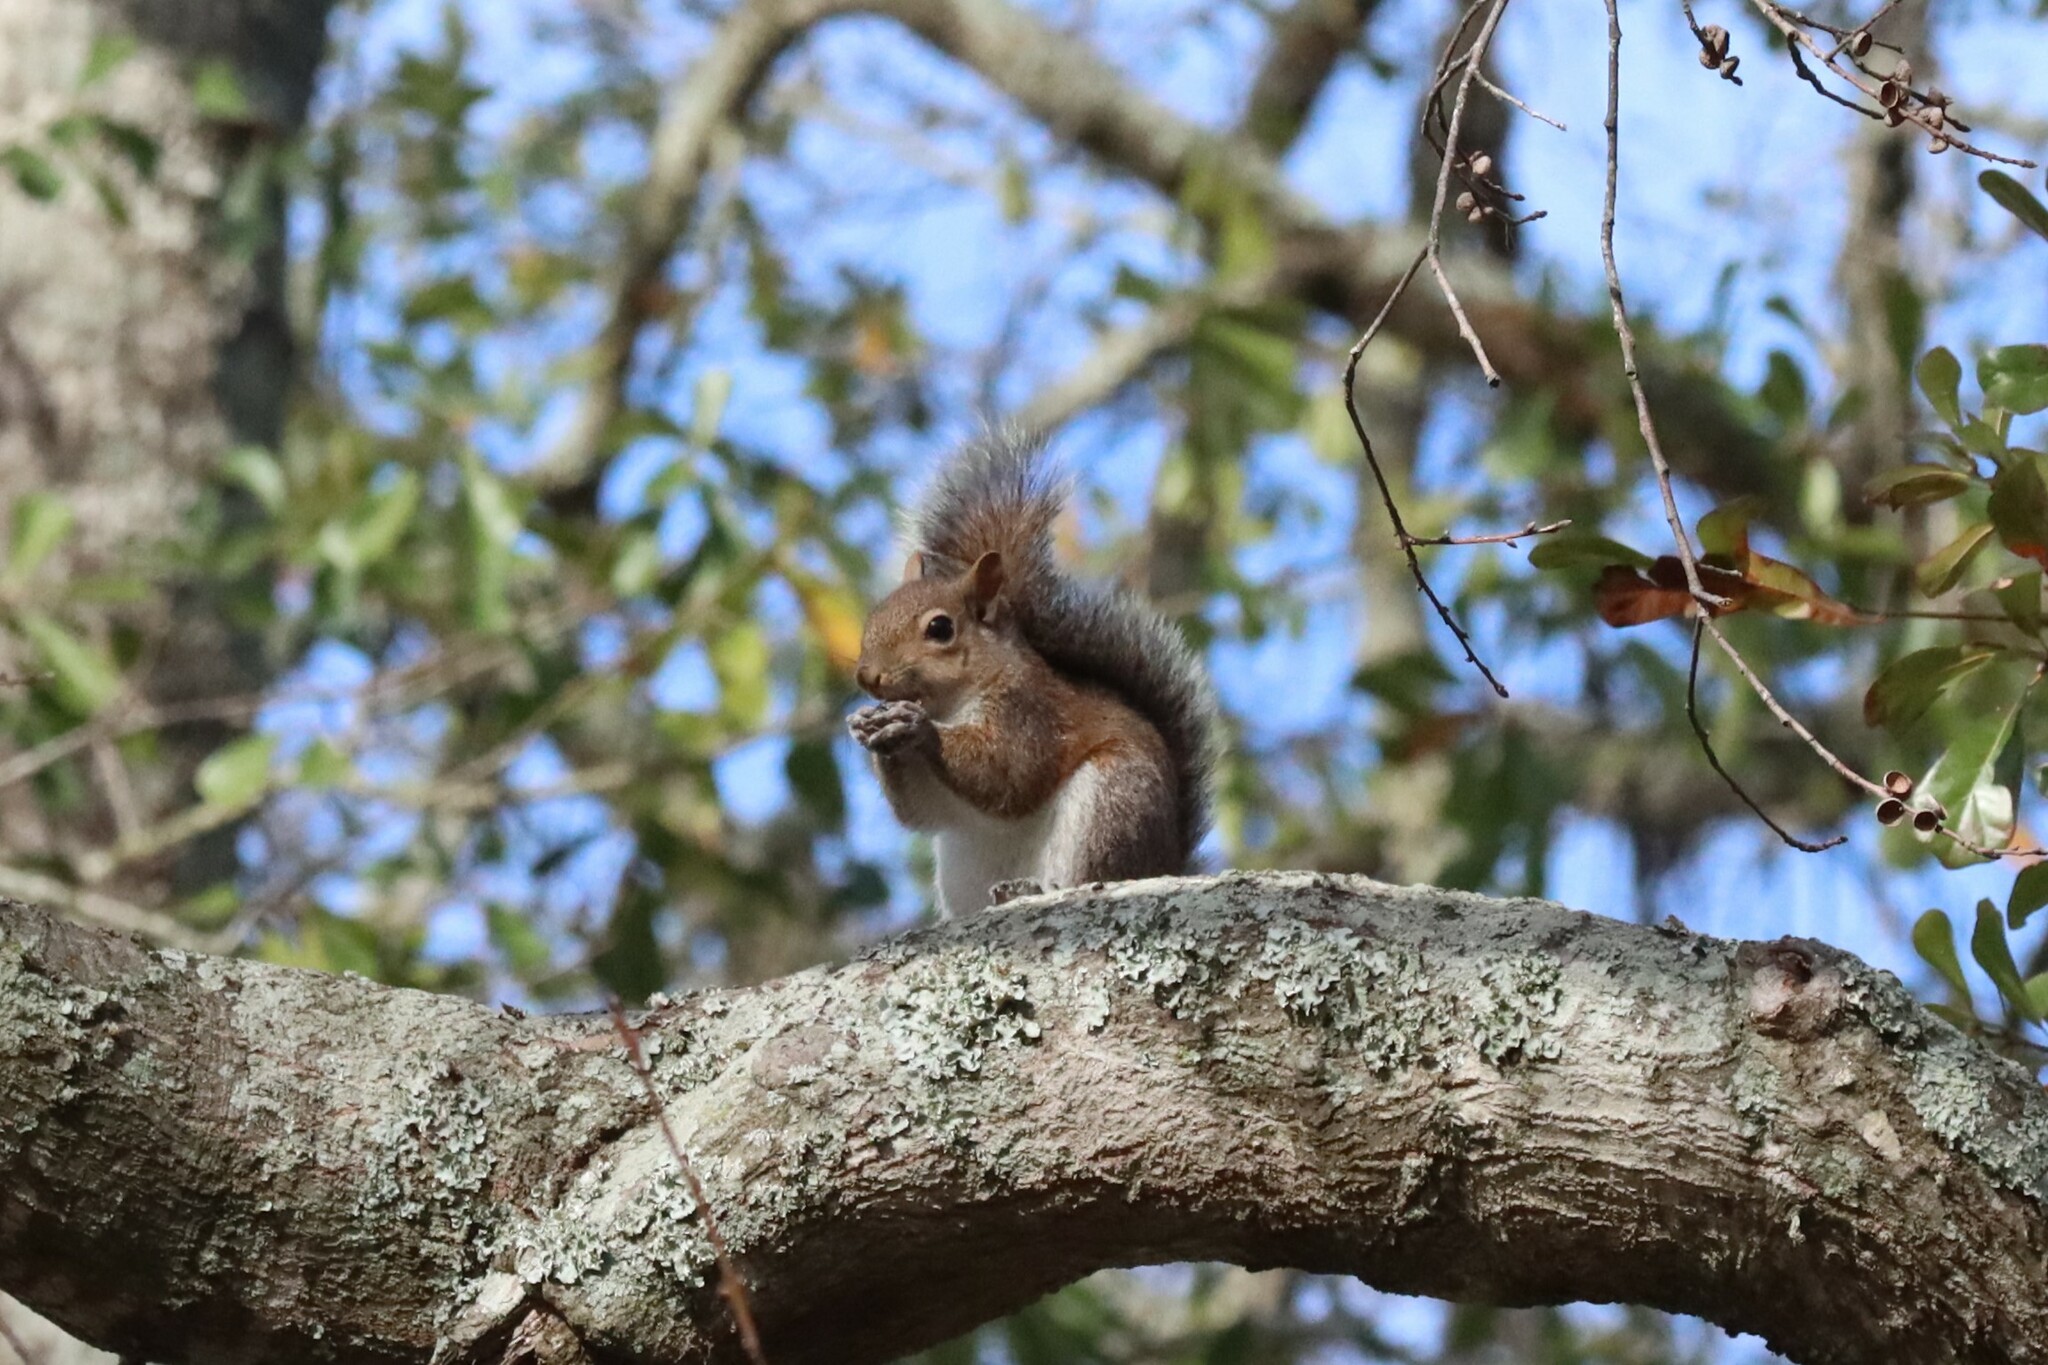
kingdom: Animalia
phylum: Chordata
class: Mammalia
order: Rodentia
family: Sciuridae
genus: Sciurus
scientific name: Sciurus carolinensis
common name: Eastern gray squirrel
